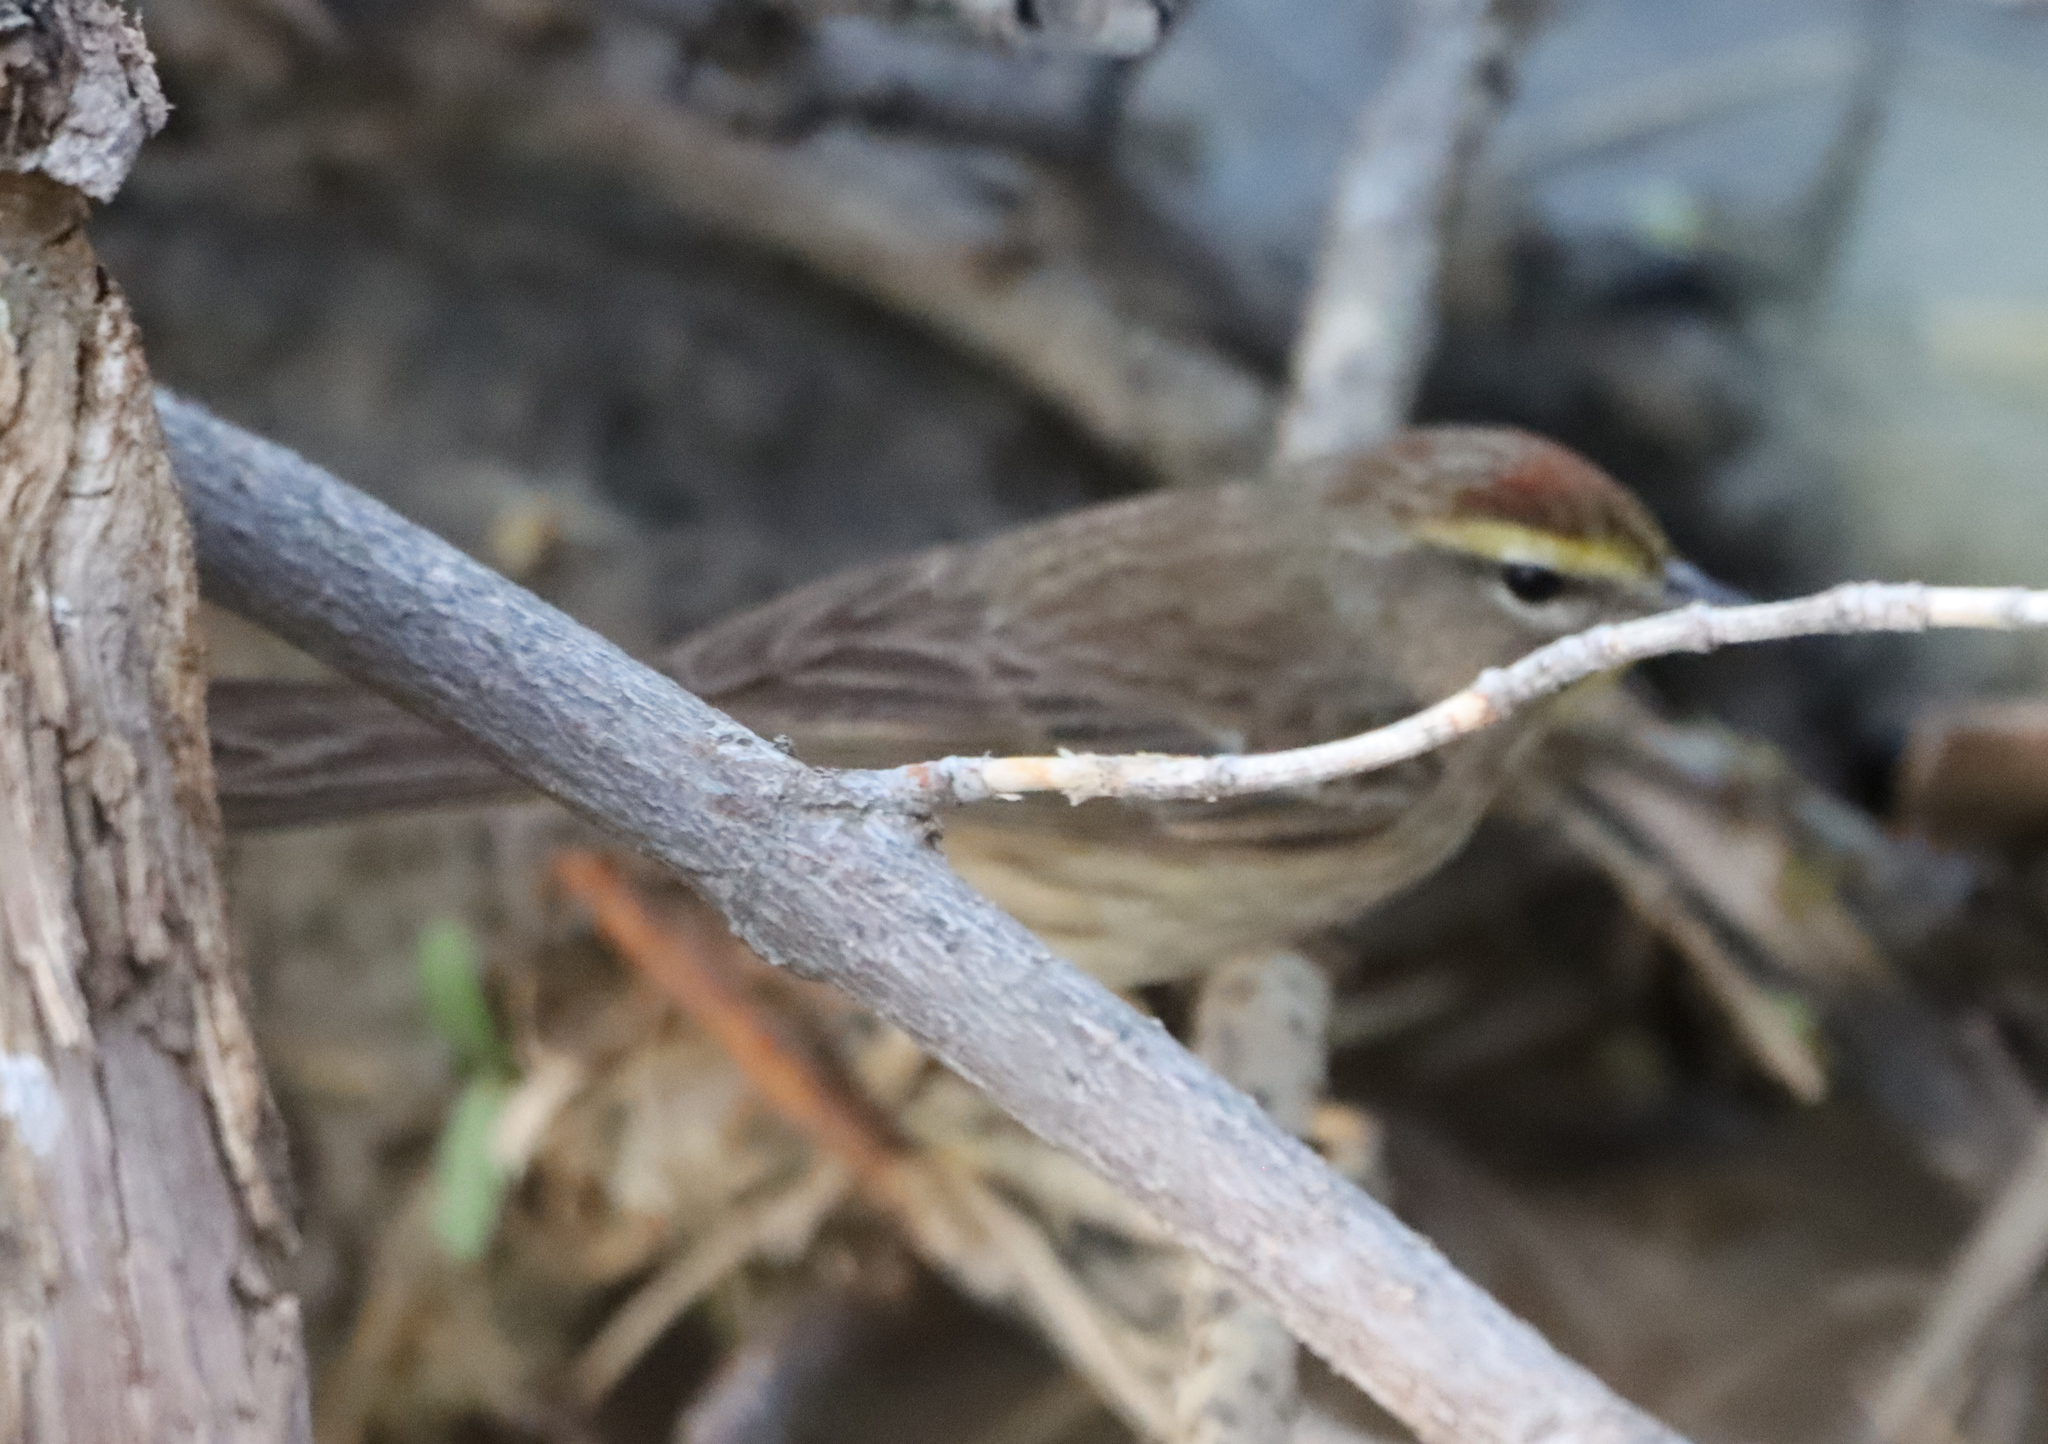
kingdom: Animalia
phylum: Chordata
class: Aves
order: Passeriformes
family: Parulidae
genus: Setophaga
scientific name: Setophaga palmarum
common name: Palm warbler
